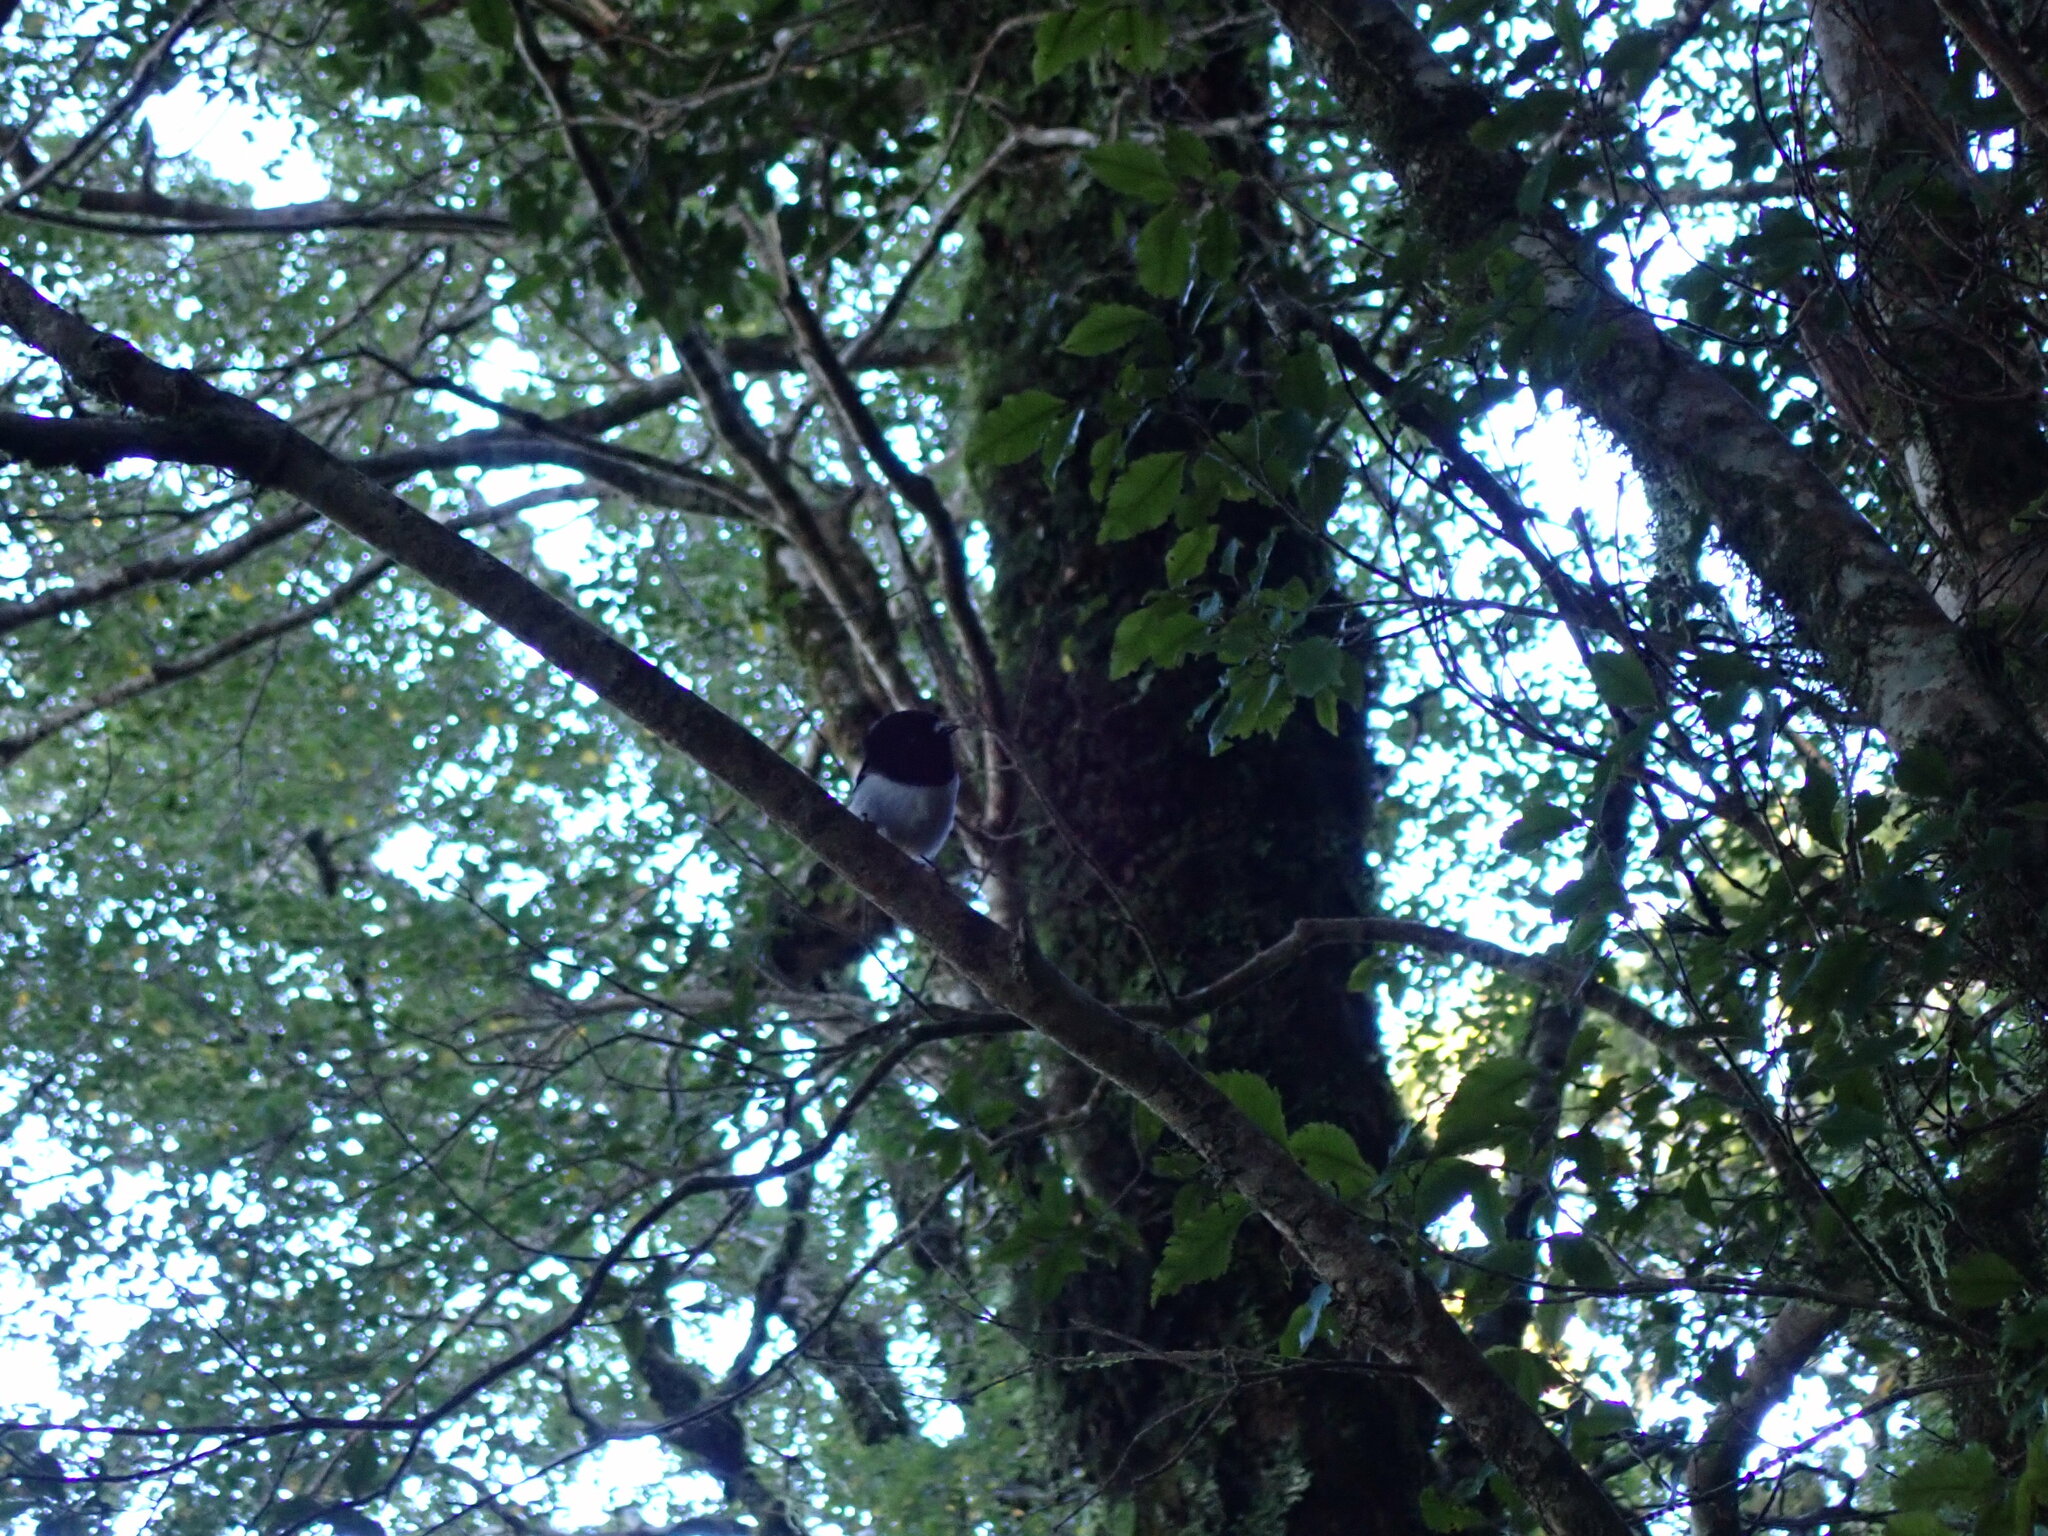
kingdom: Animalia
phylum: Chordata
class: Aves
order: Passeriformes
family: Petroicidae
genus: Petroica
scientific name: Petroica macrocephala
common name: Tomtit
